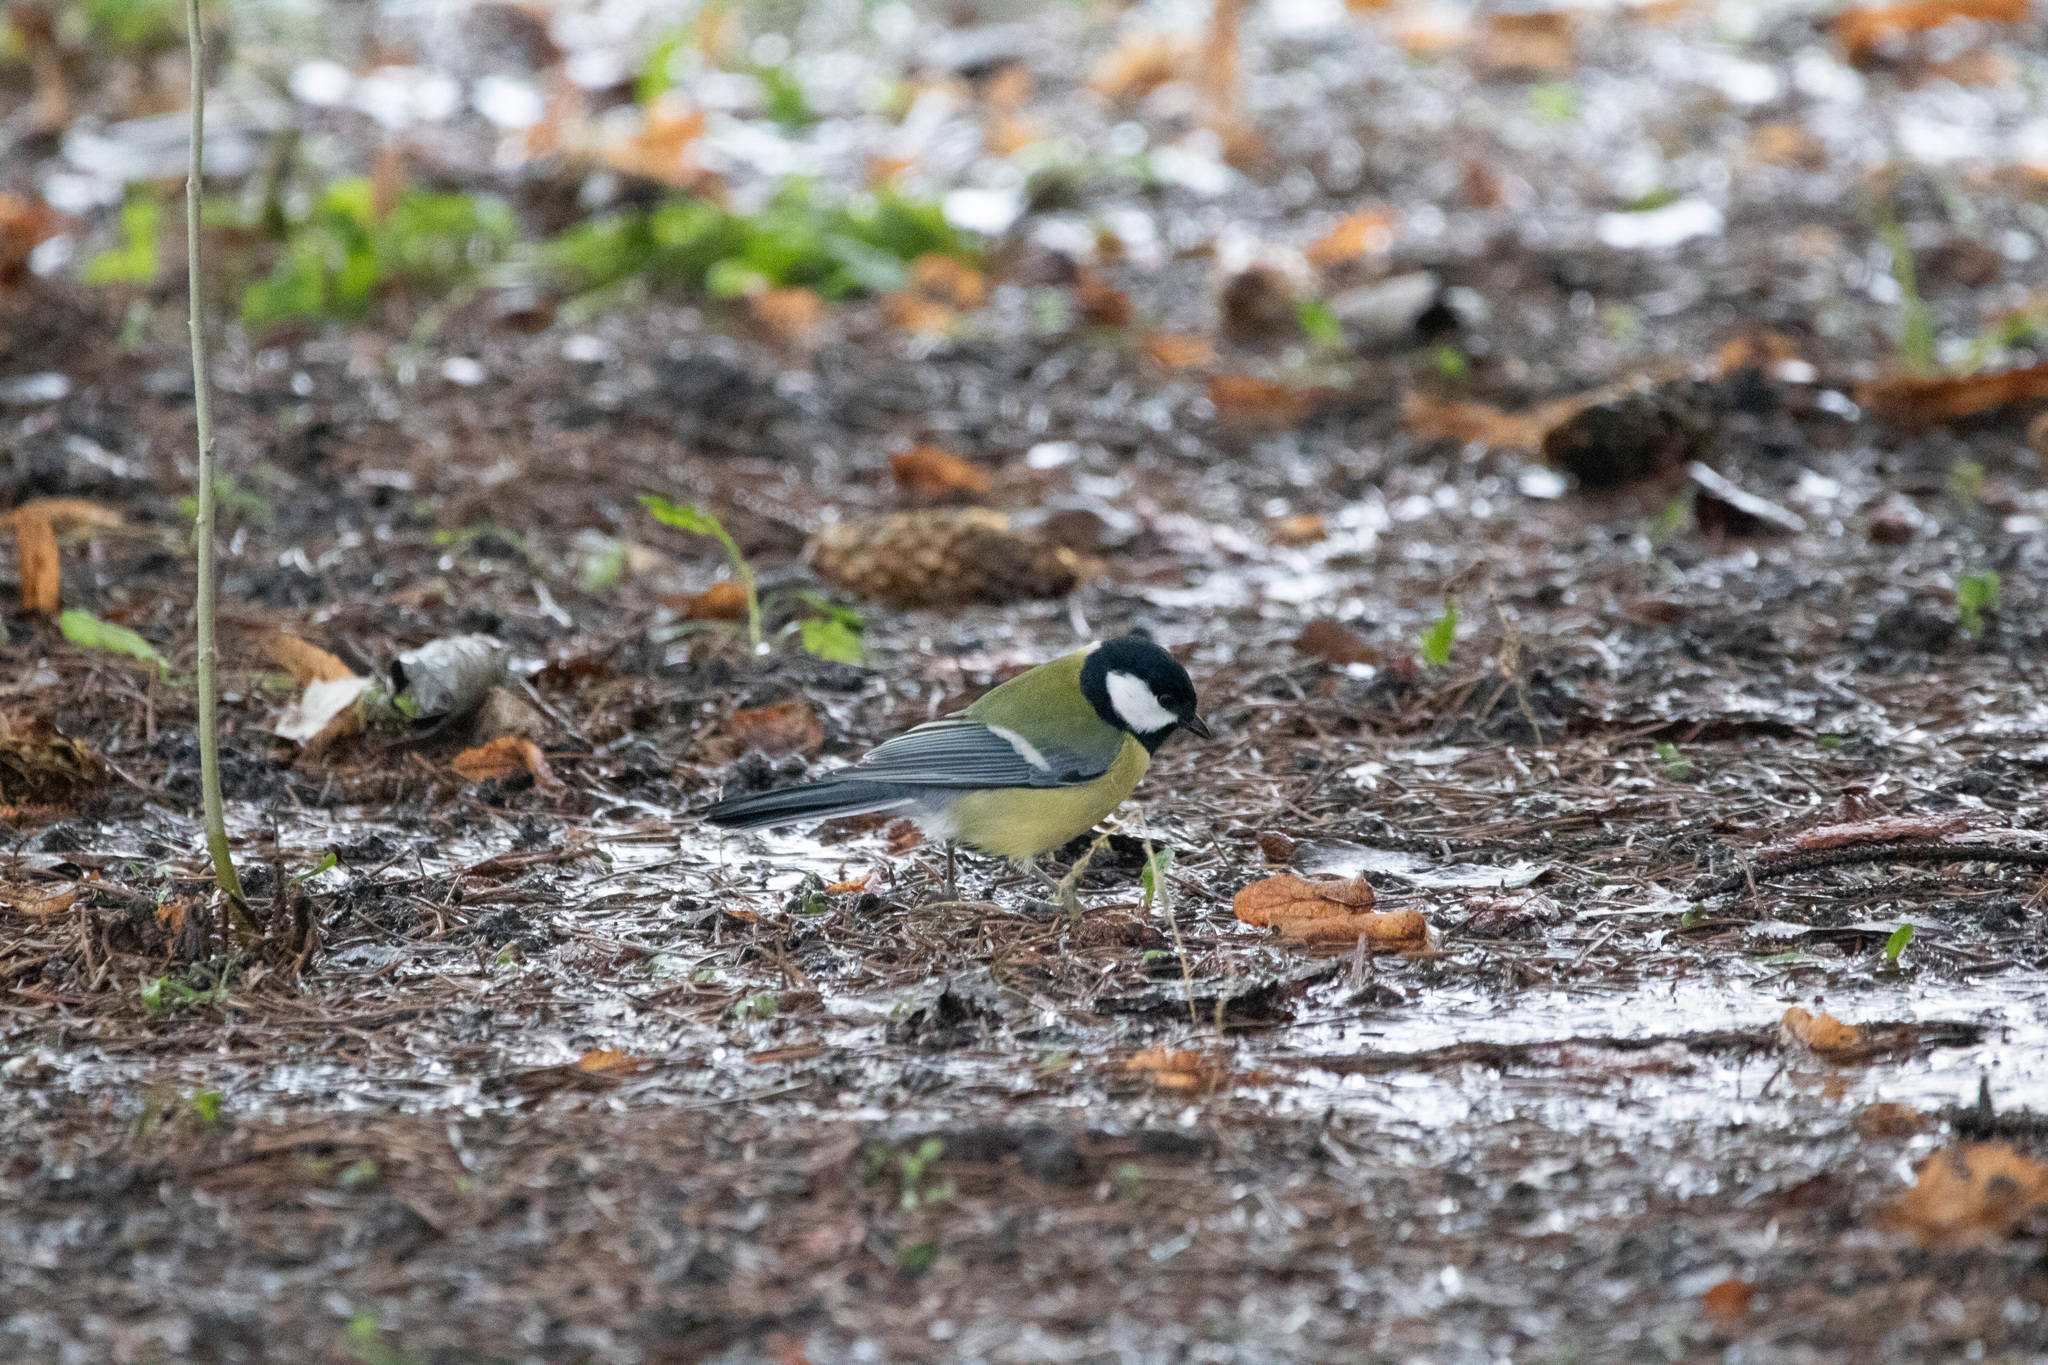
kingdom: Animalia
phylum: Chordata
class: Aves
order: Passeriformes
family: Paridae
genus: Parus
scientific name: Parus major
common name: Great tit
